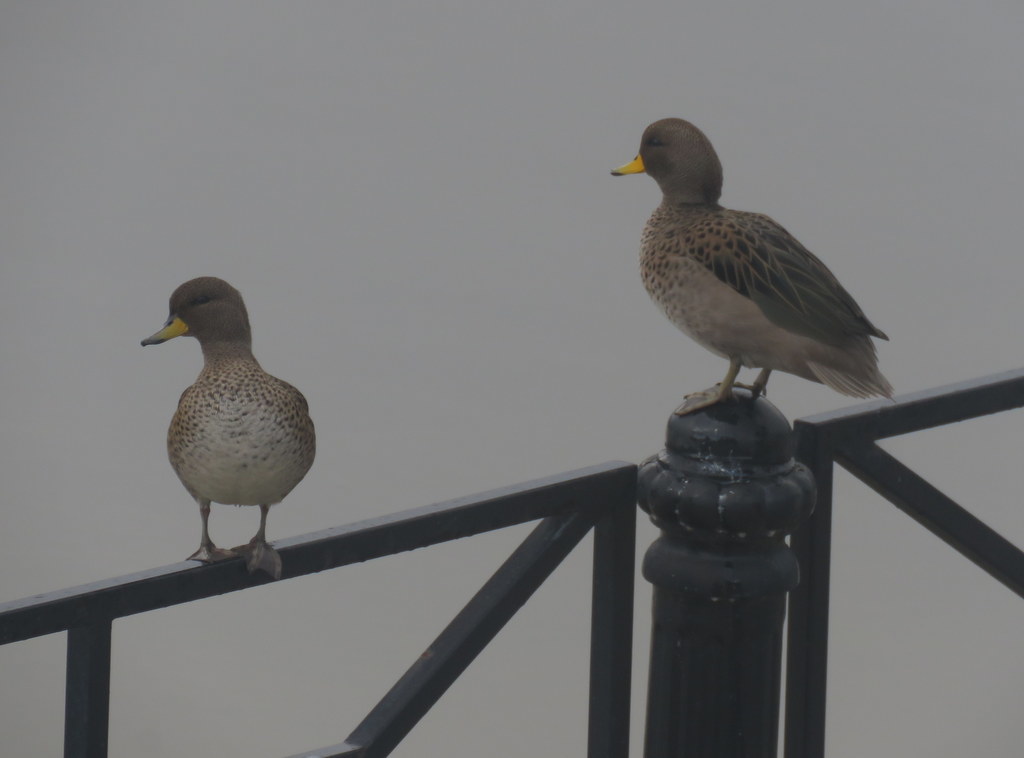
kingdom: Animalia
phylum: Chordata
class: Aves
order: Anseriformes
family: Anatidae
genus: Anas
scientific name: Anas flavirostris
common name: Yellow-billed teal
